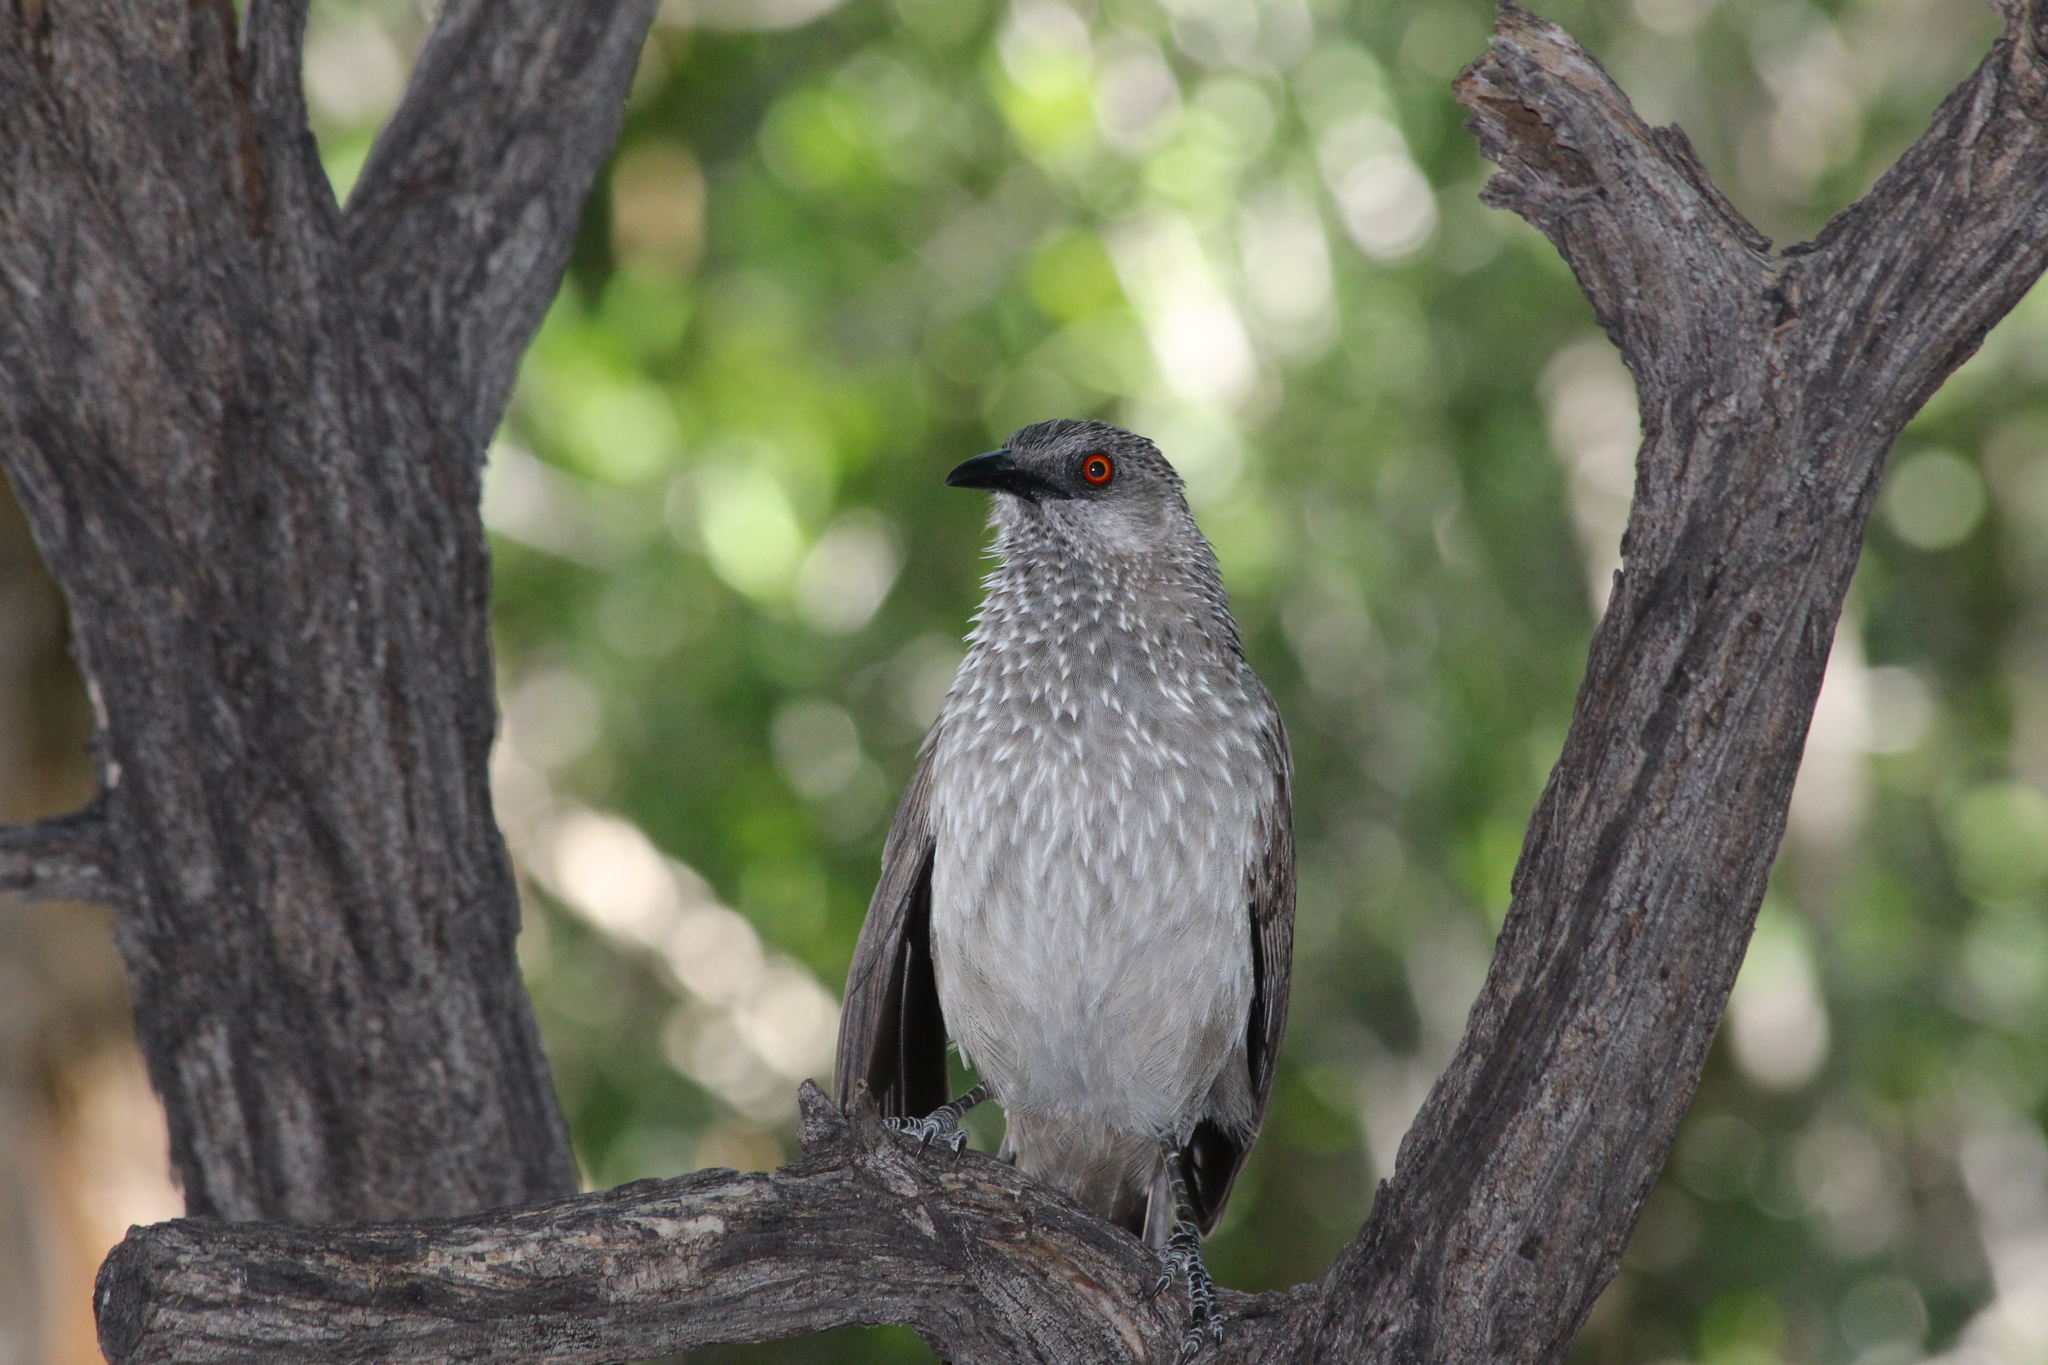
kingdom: Animalia
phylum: Chordata
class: Aves
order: Passeriformes
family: Leiothrichidae
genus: Turdoides
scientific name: Turdoides jardineii
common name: Arrow-marked babbler
